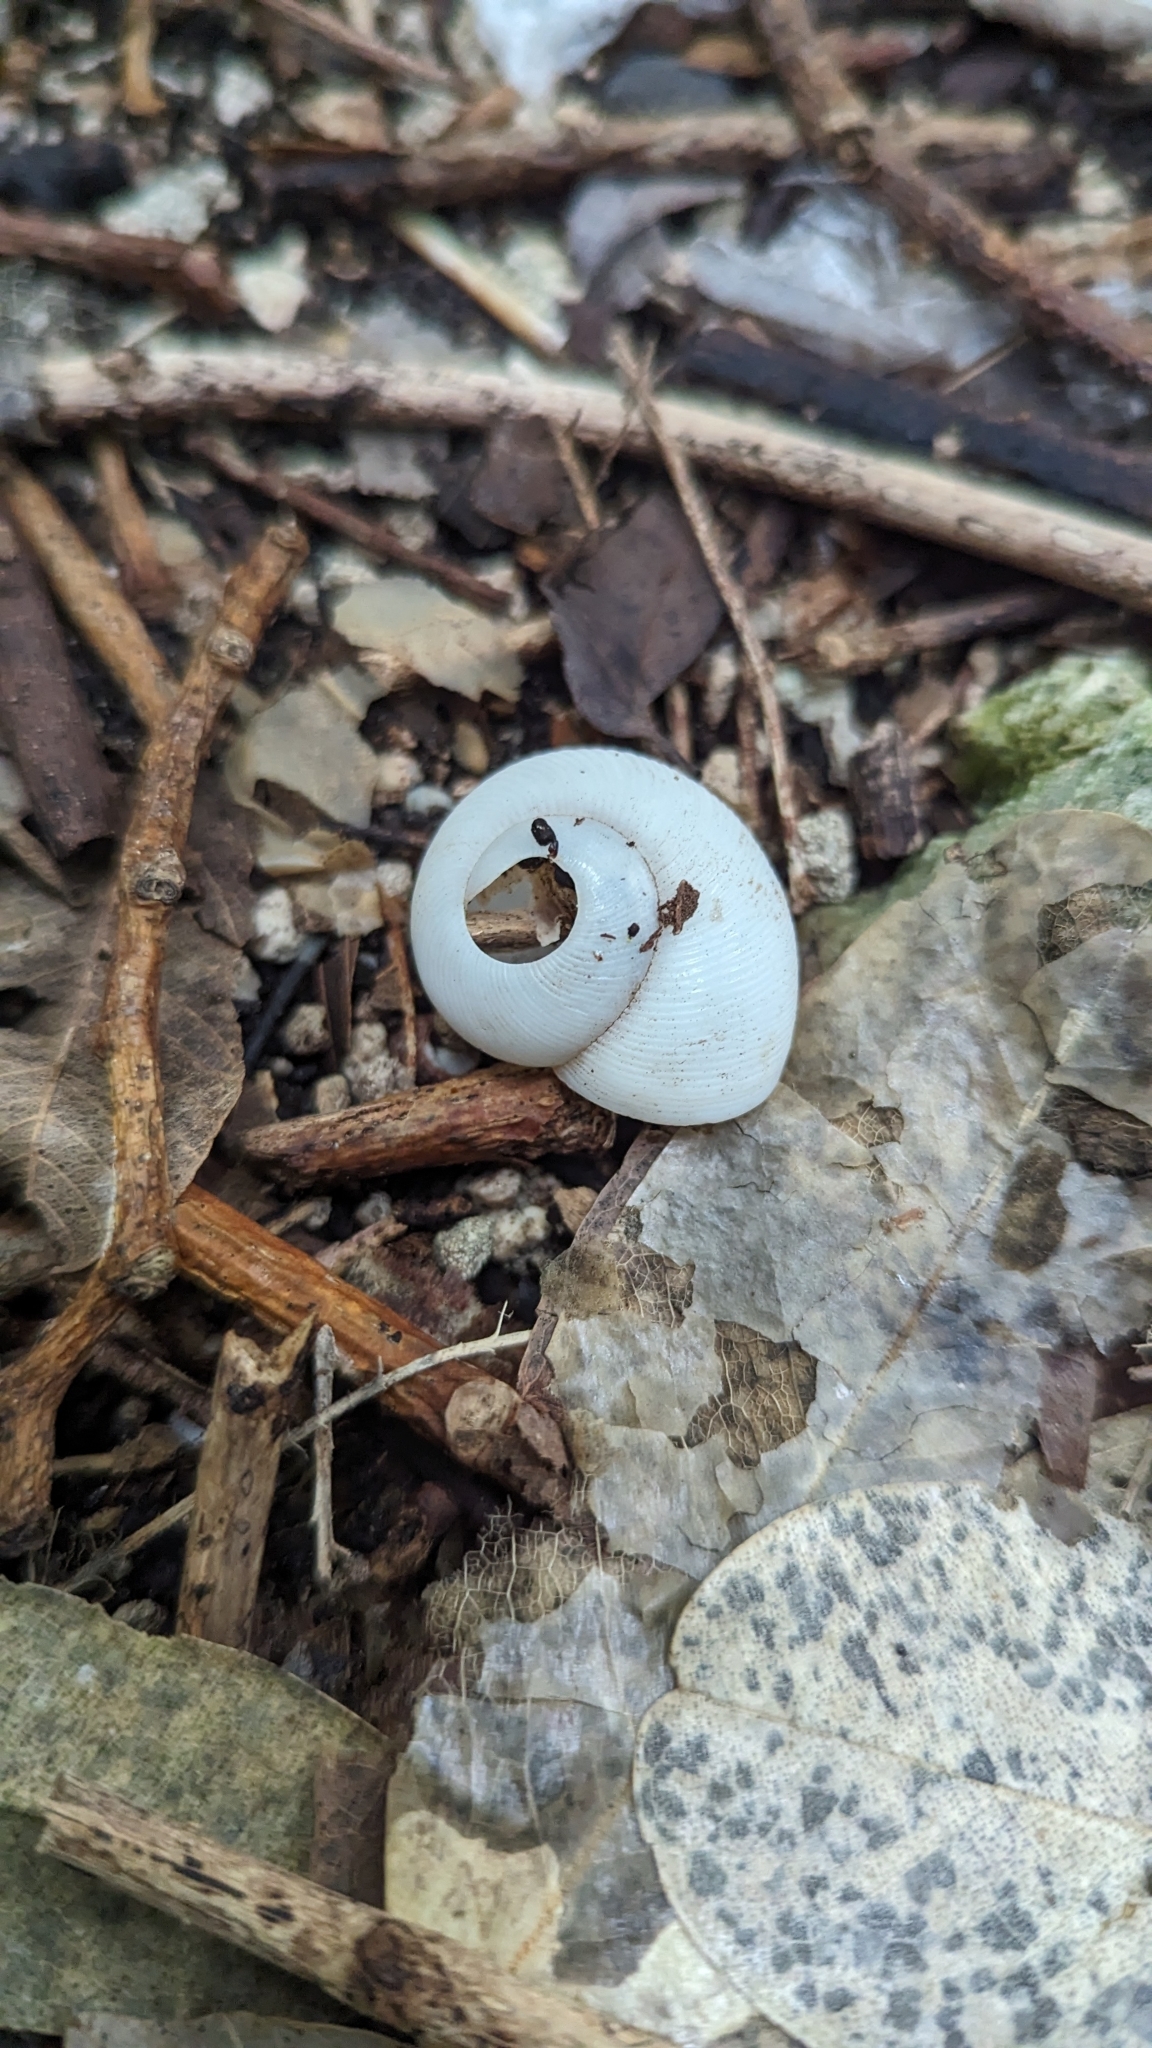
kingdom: Animalia
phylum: Mollusca
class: Gastropoda
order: Stylommatophora
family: Zachrysiidae
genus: Zachrysia
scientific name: Zachrysia provisoria
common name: Garden zachrysia
